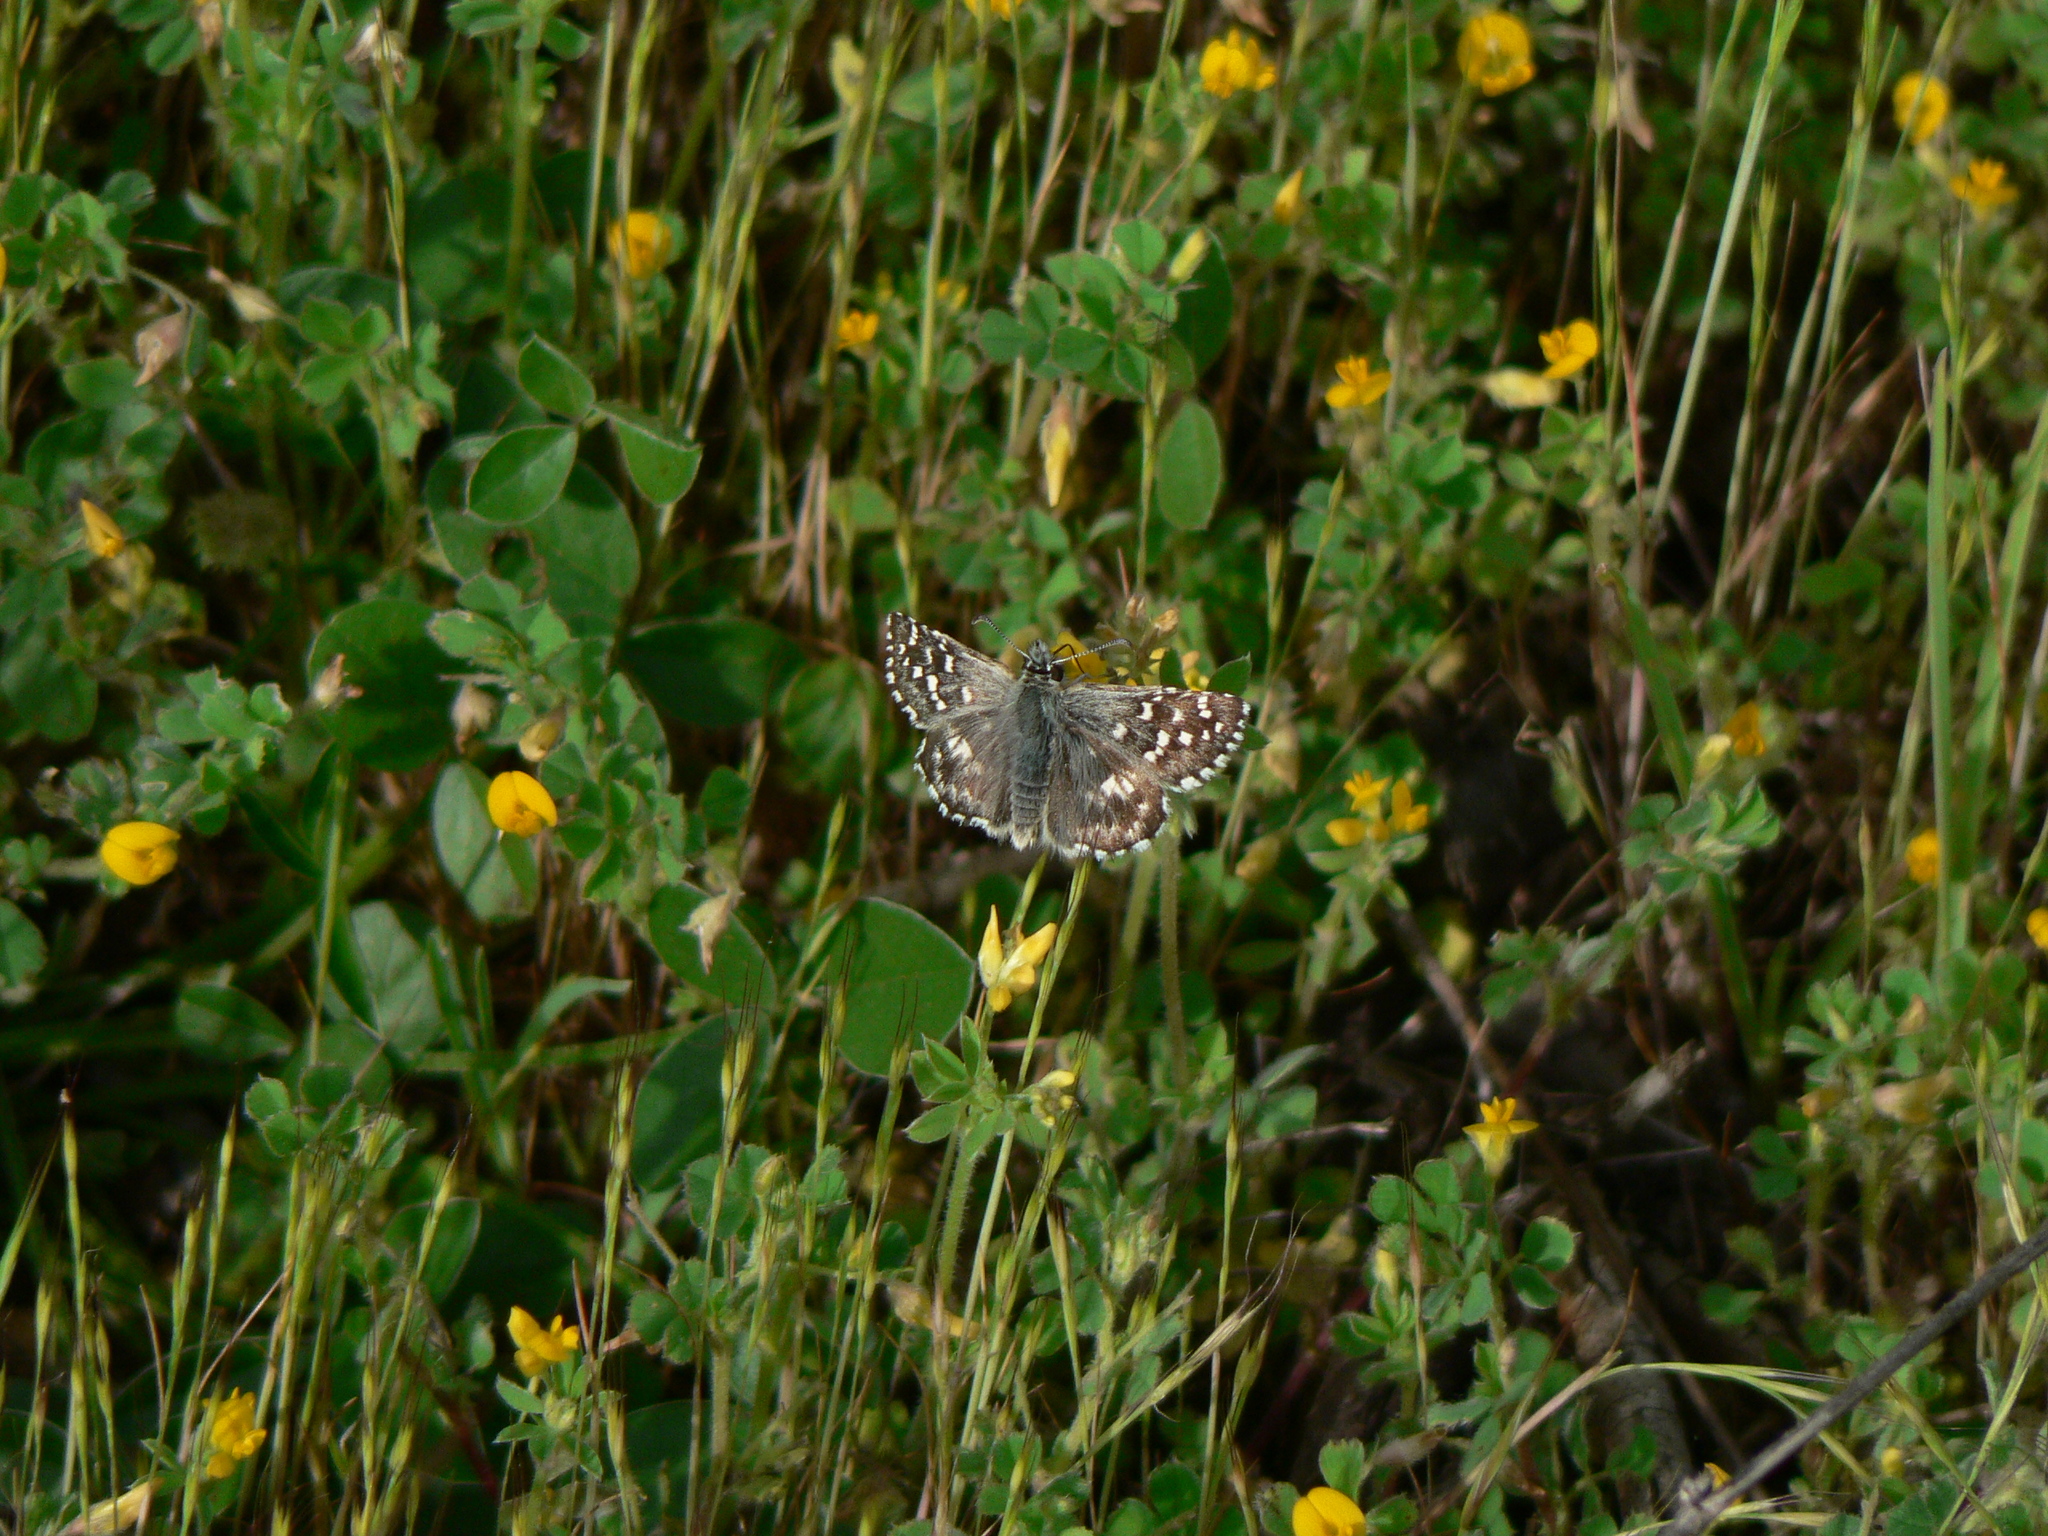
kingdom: Animalia
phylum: Arthropoda
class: Insecta
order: Lepidoptera
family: Hesperiidae
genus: Pyrgus
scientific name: Pyrgus malvoides
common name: Southern grizzled skipper
